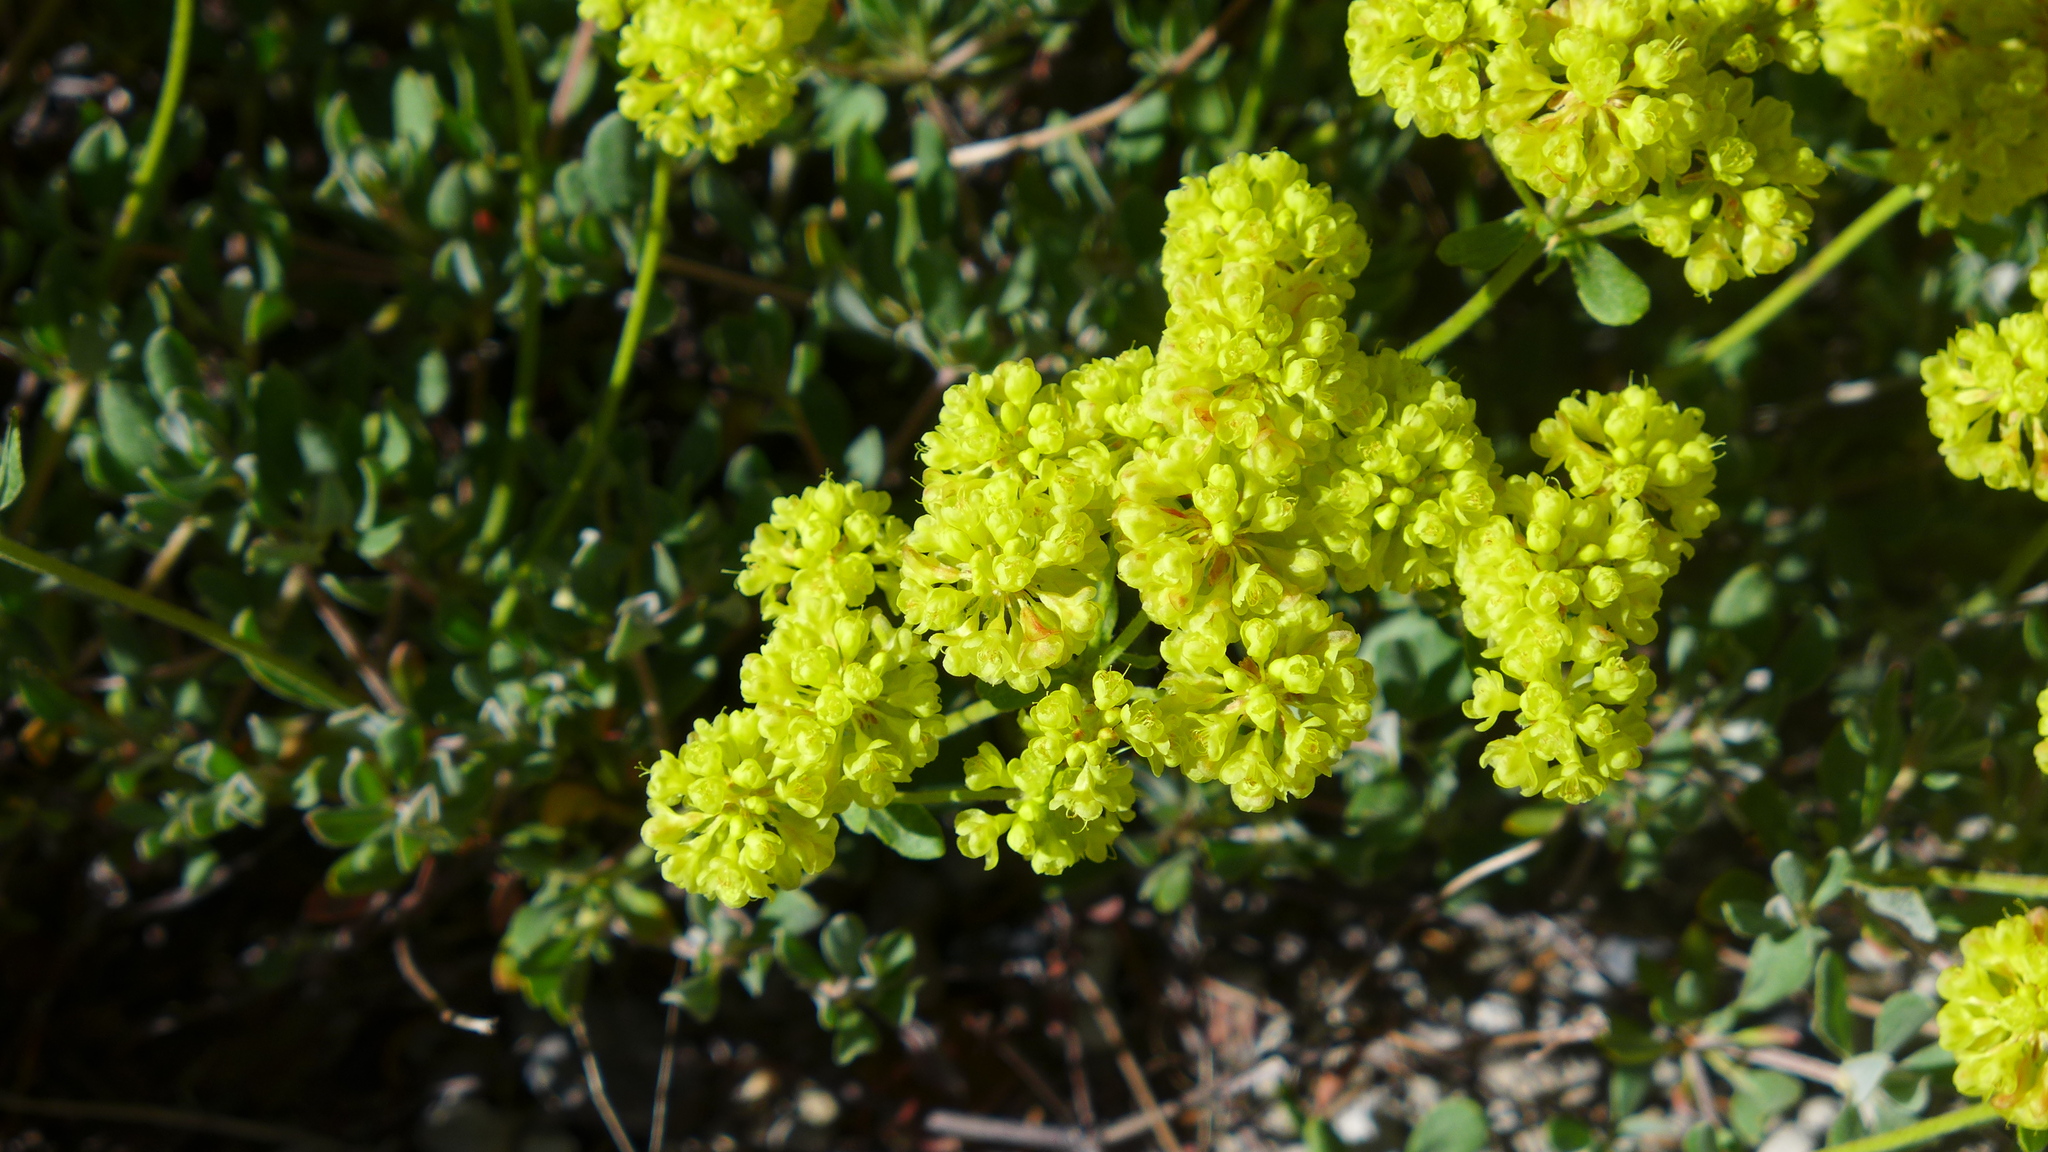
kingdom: Plantae
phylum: Tracheophyta
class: Magnoliopsida
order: Caryophyllales
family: Polygonaceae
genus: Eriogonum
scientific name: Eriogonum umbellatum
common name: Sulfur-buckwheat
